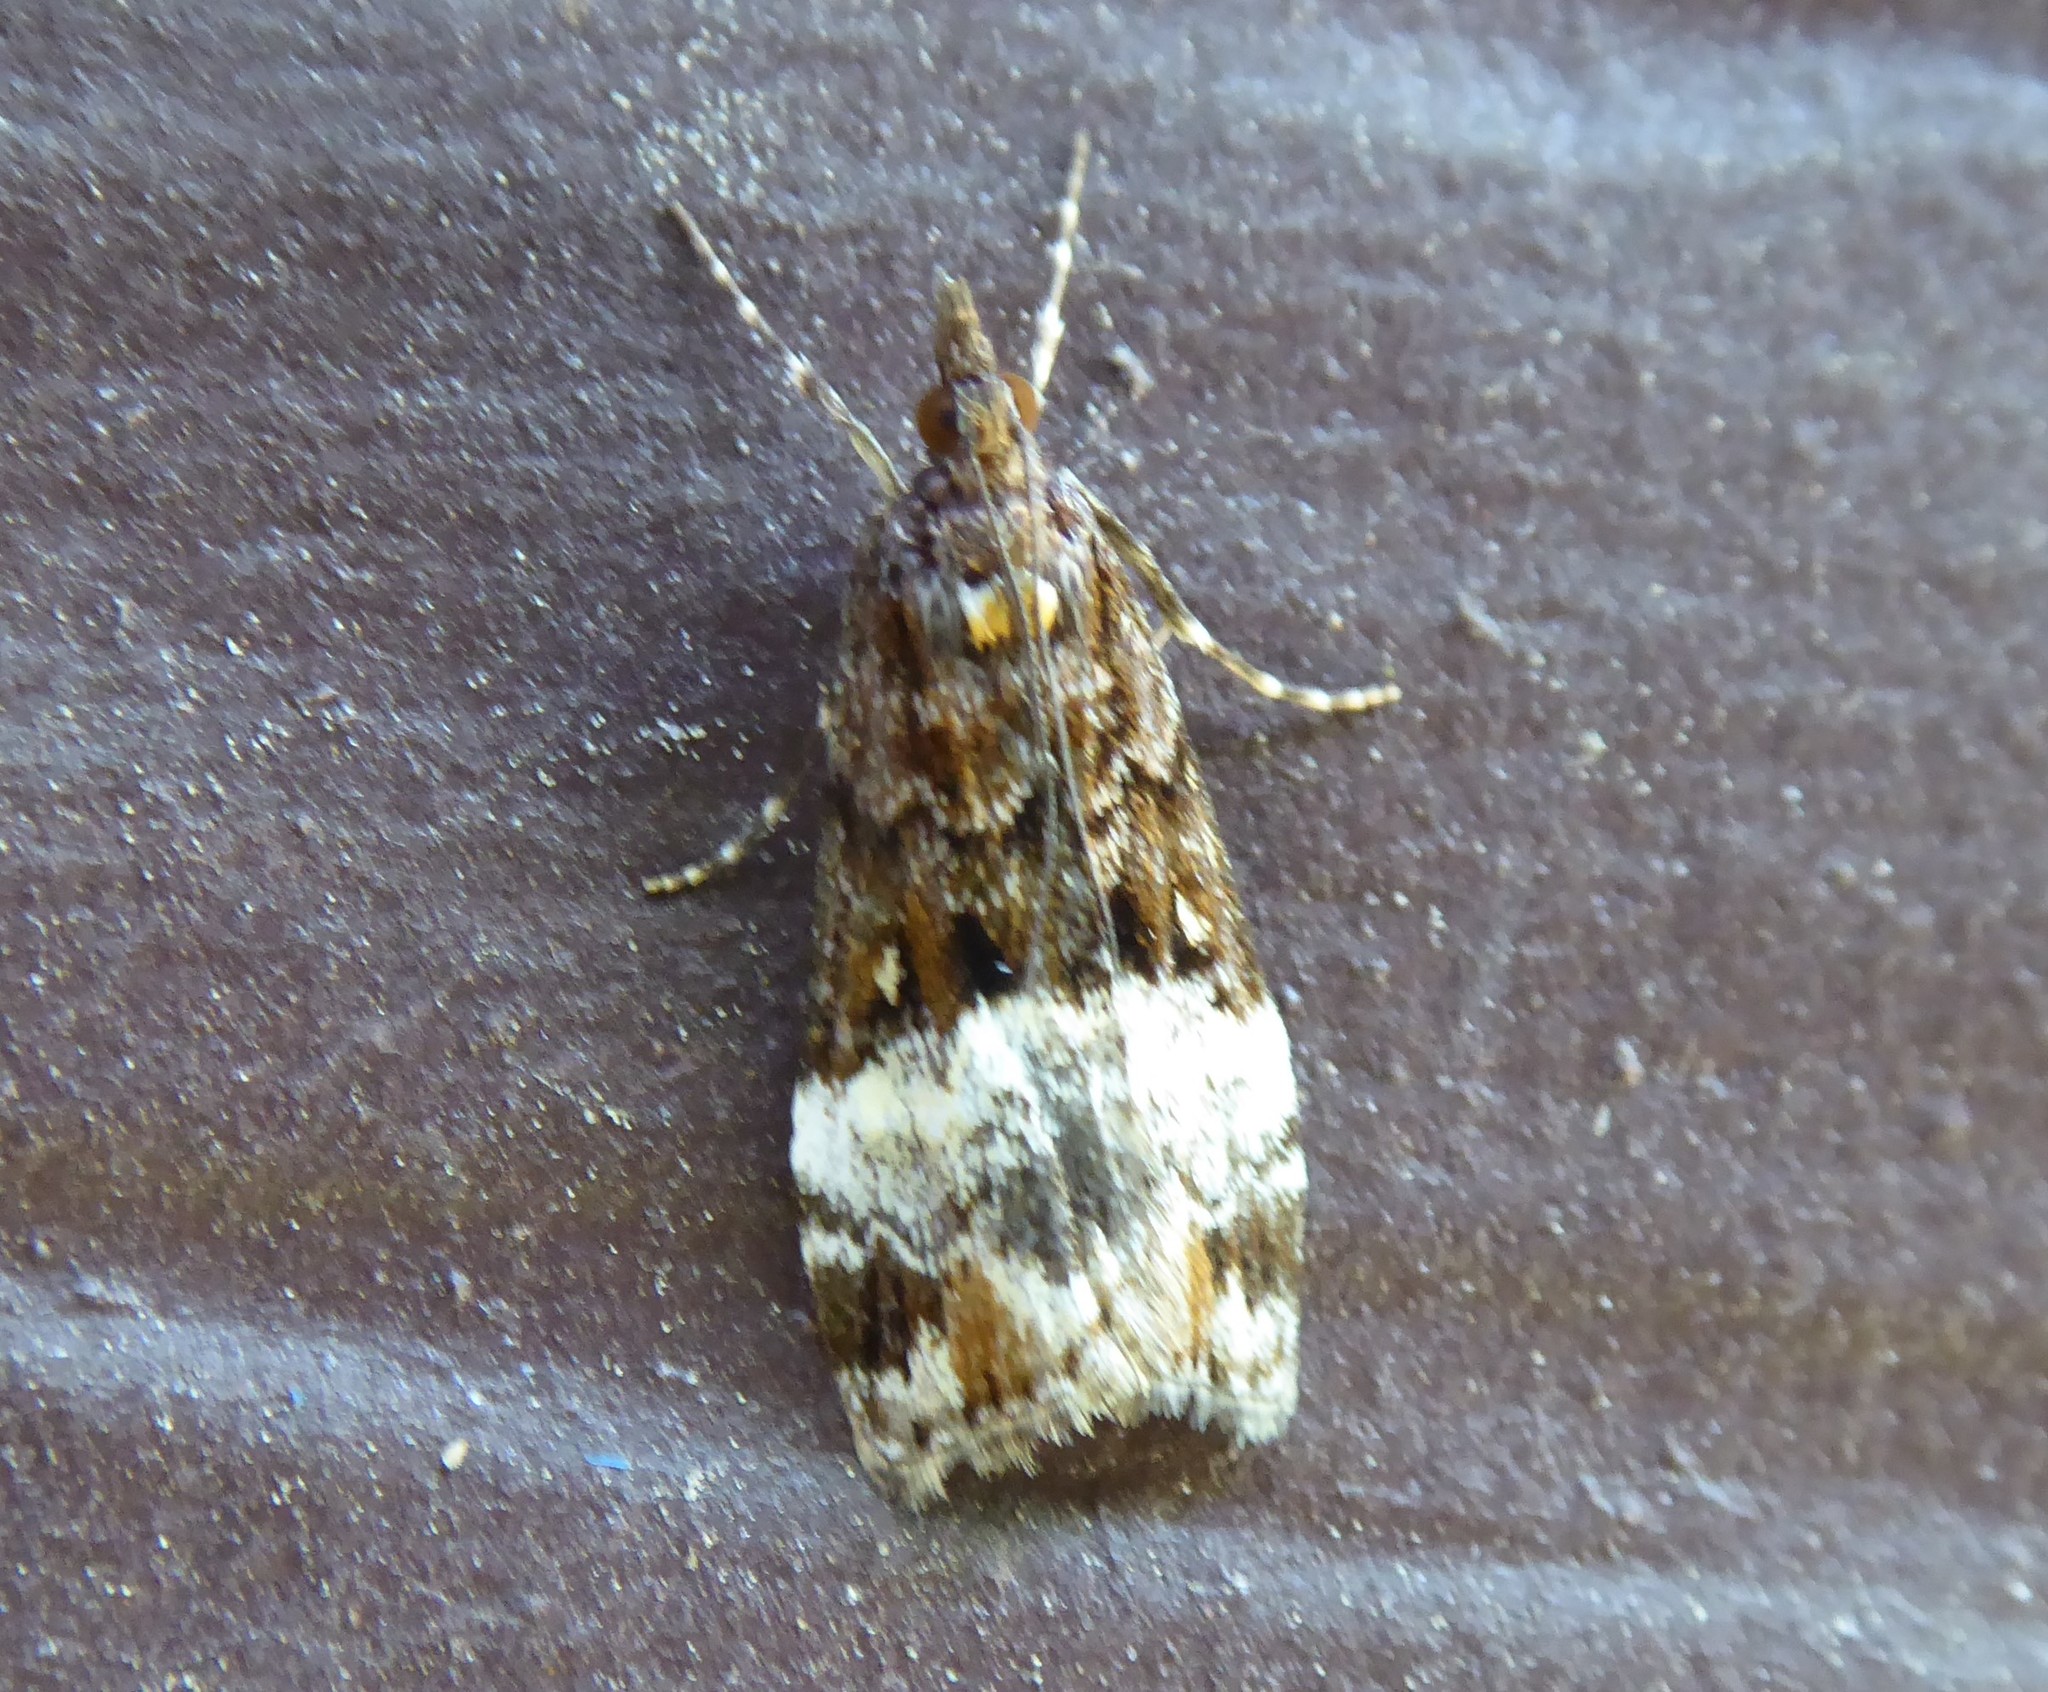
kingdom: Animalia
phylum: Arthropoda
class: Insecta
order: Lepidoptera
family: Crambidae
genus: Scoparia
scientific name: Scoparia minusculalis
